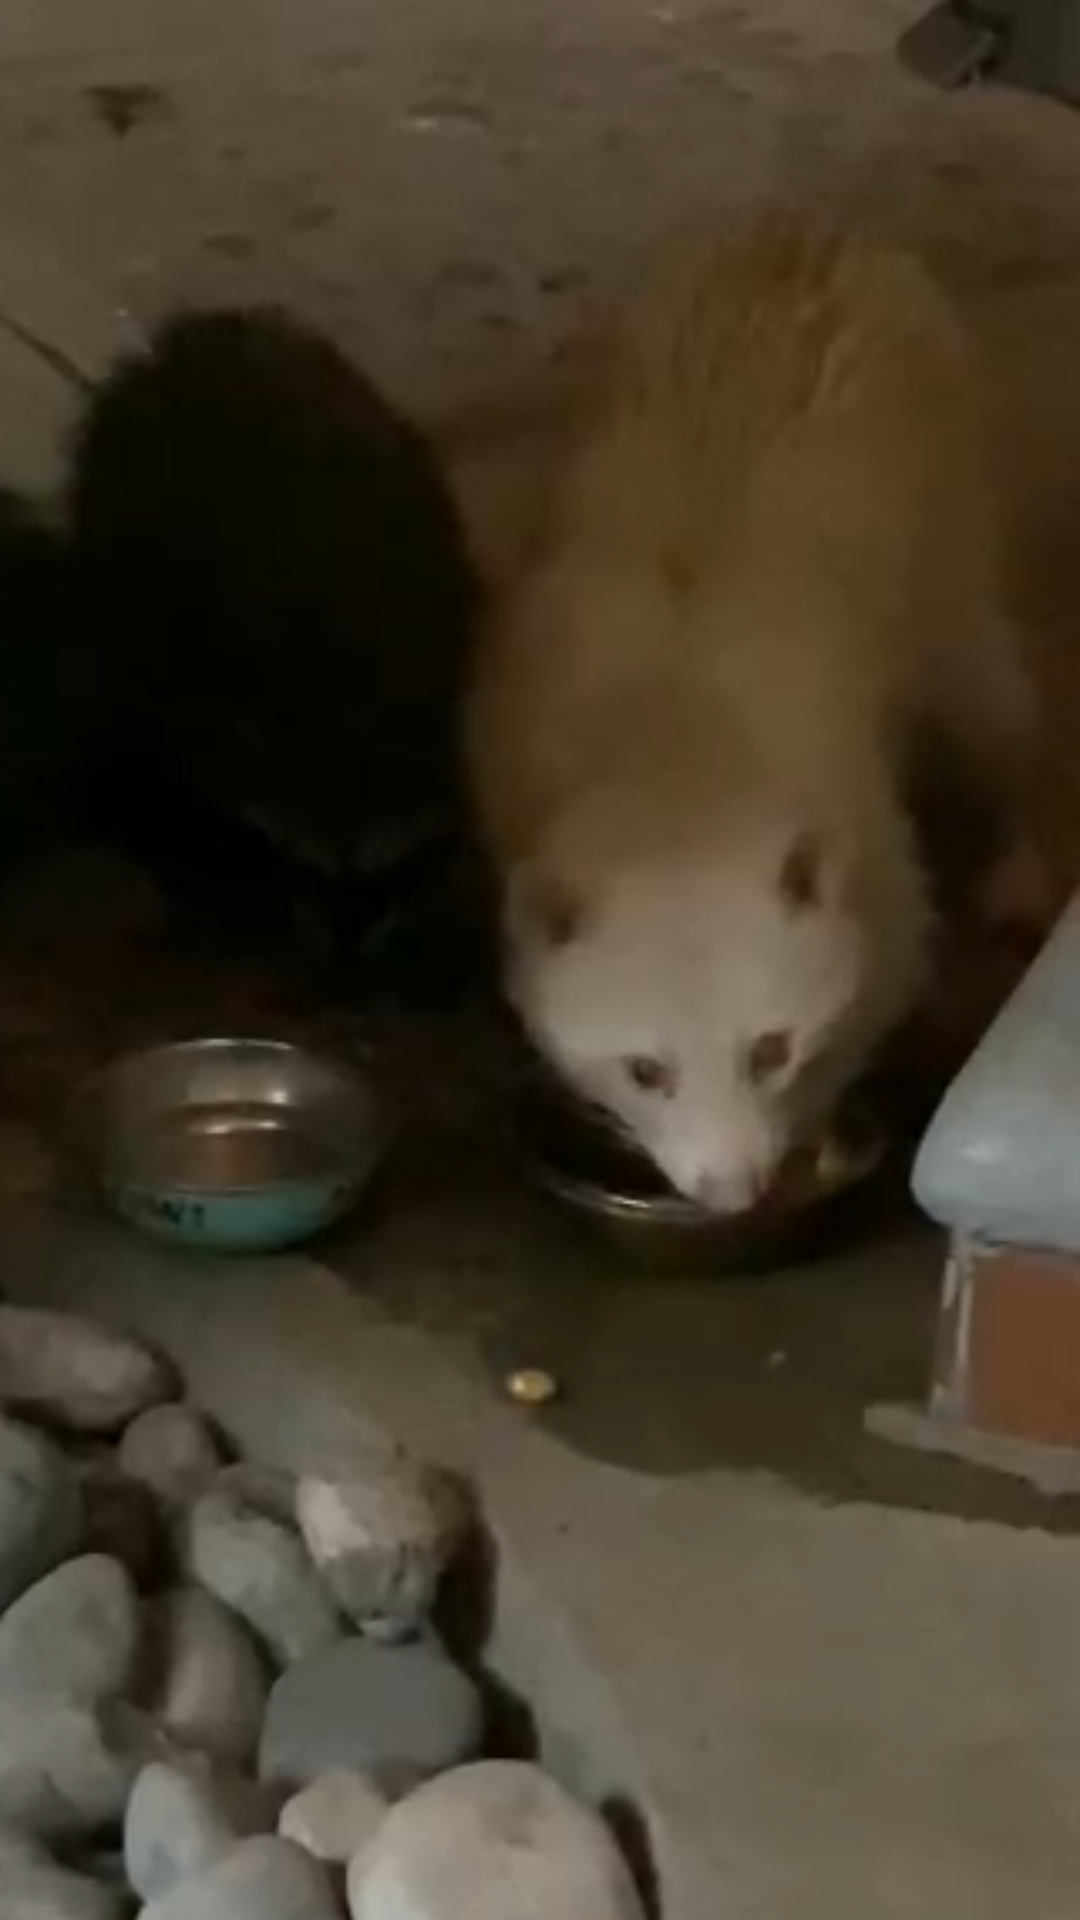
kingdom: Animalia
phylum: Chordata
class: Mammalia
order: Carnivora
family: Procyonidae
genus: Procyon
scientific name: Procyon lotor
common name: Raccoon
